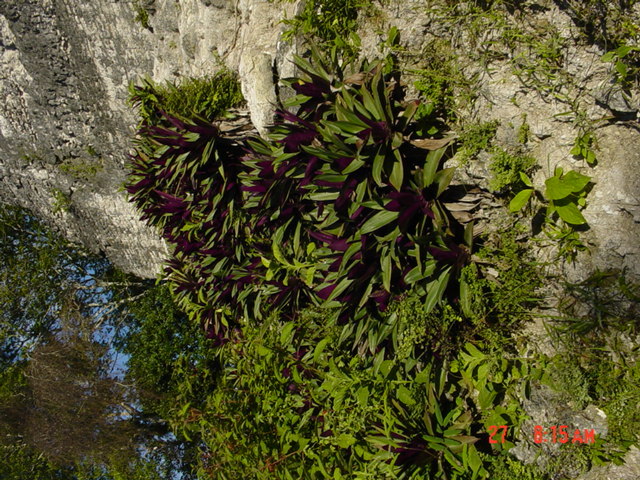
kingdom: Plantae
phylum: Tracheophyta
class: Liliopsida
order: Commelinales
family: Commelinaceae
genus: Tradescantia
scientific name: Tradescantia spathacea
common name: Boatlily
